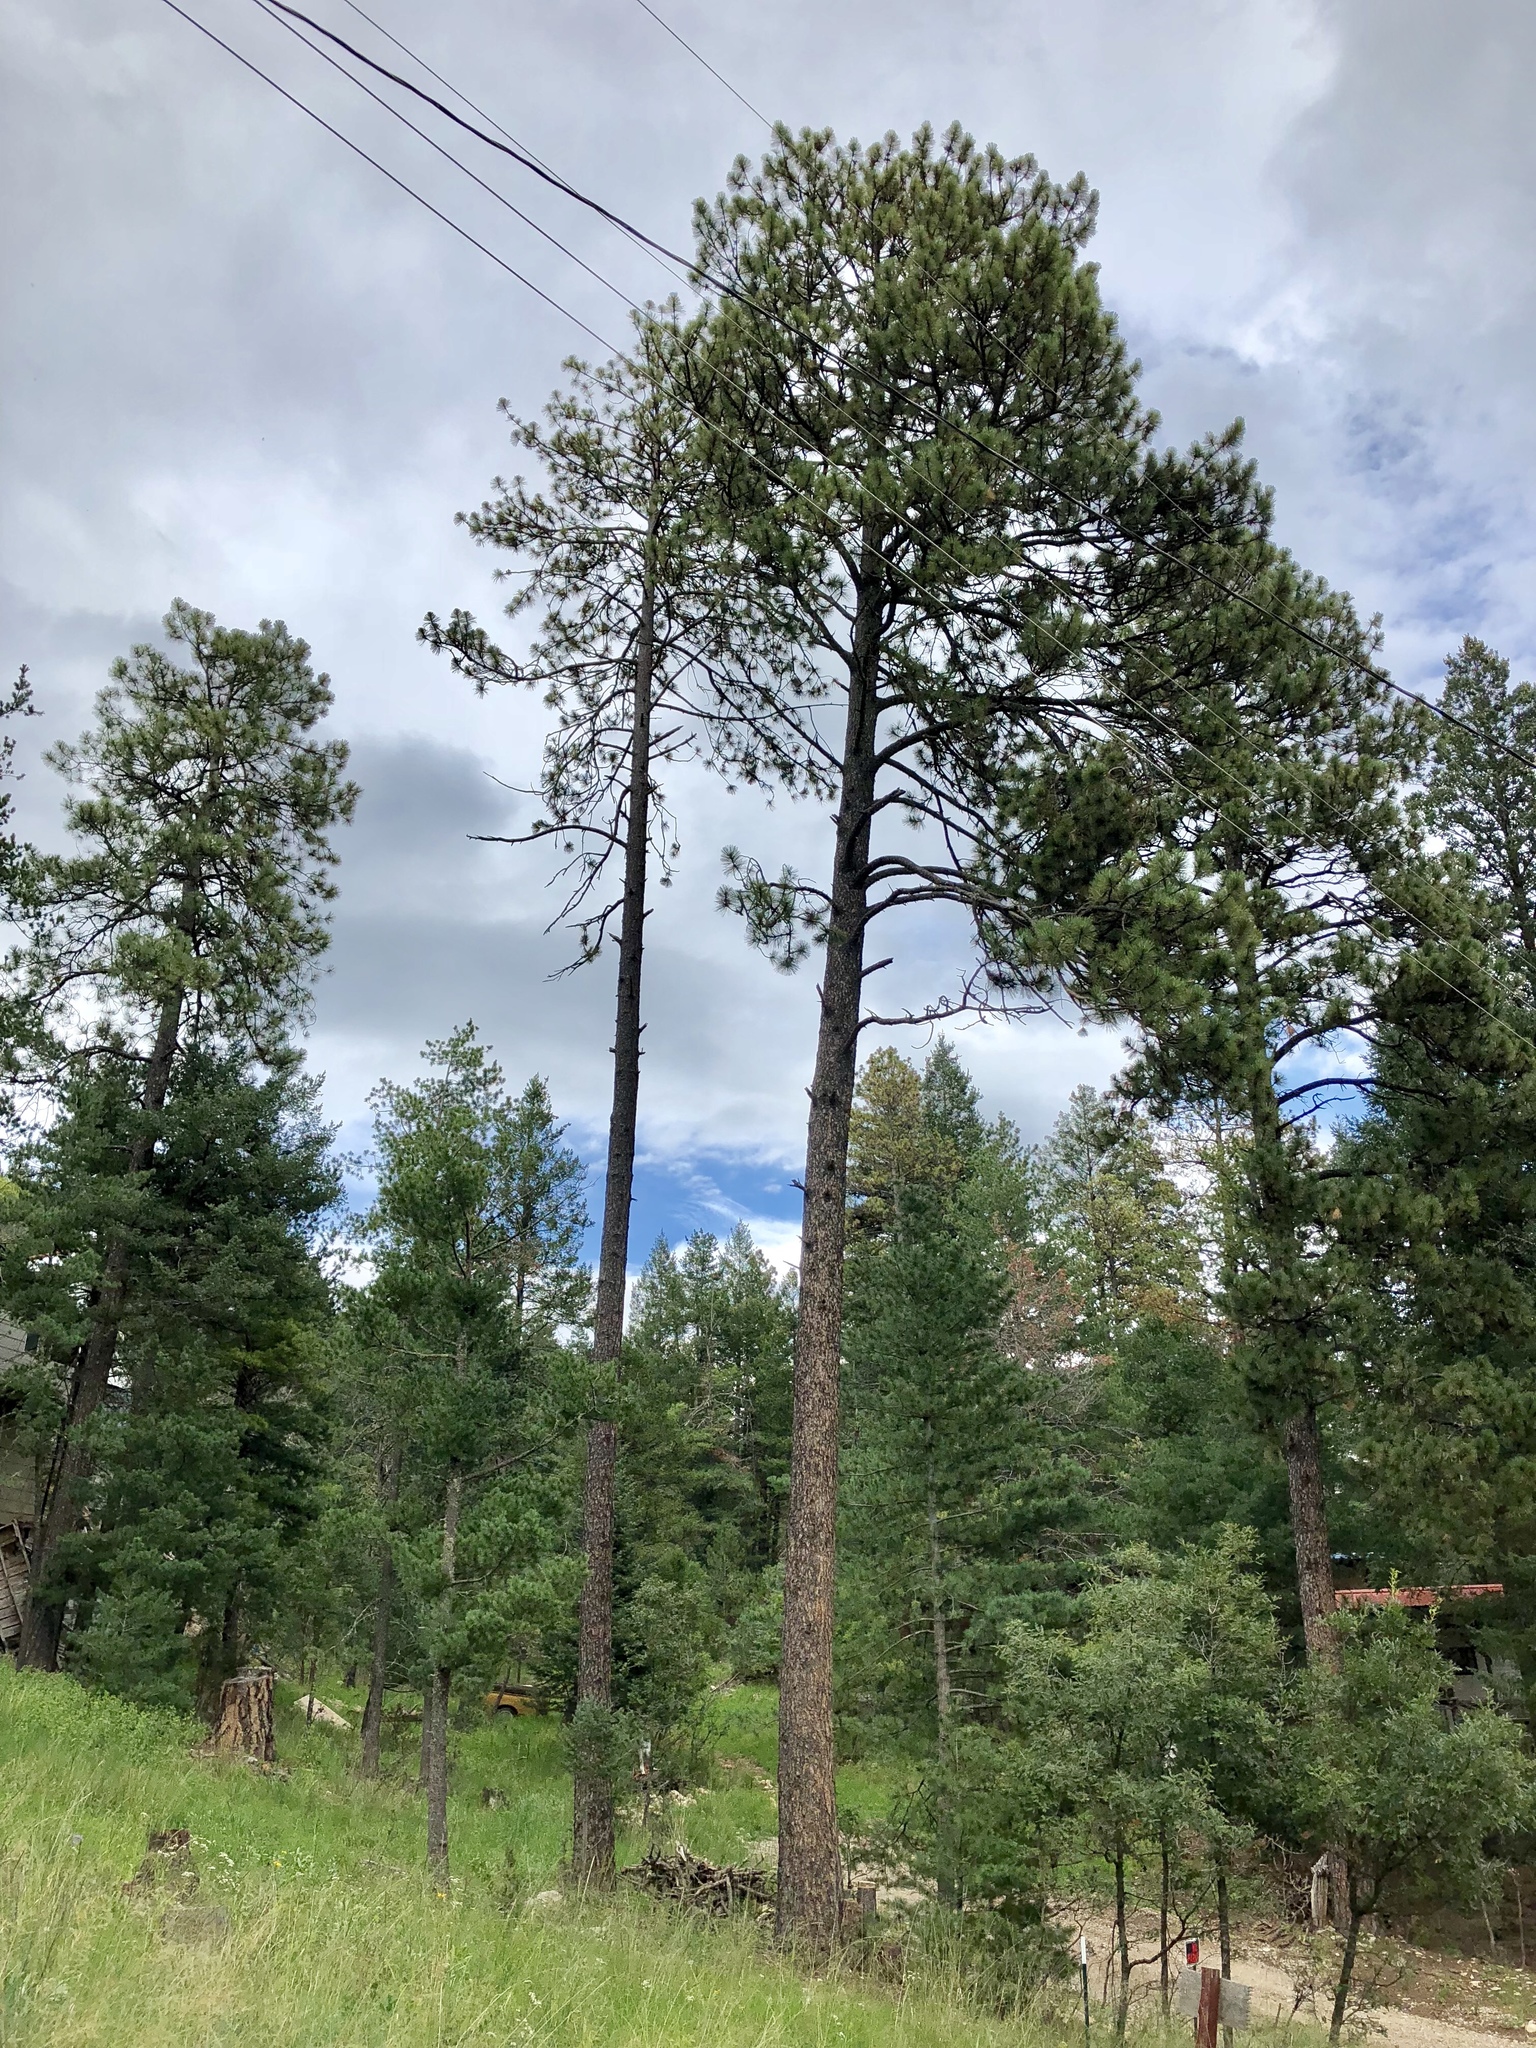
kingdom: Plantae
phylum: Tracheophyta
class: Pinopsida
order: Pinales
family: Pinaceae
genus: Pinus
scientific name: Pinus ponderosa
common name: Western yellow-pine
